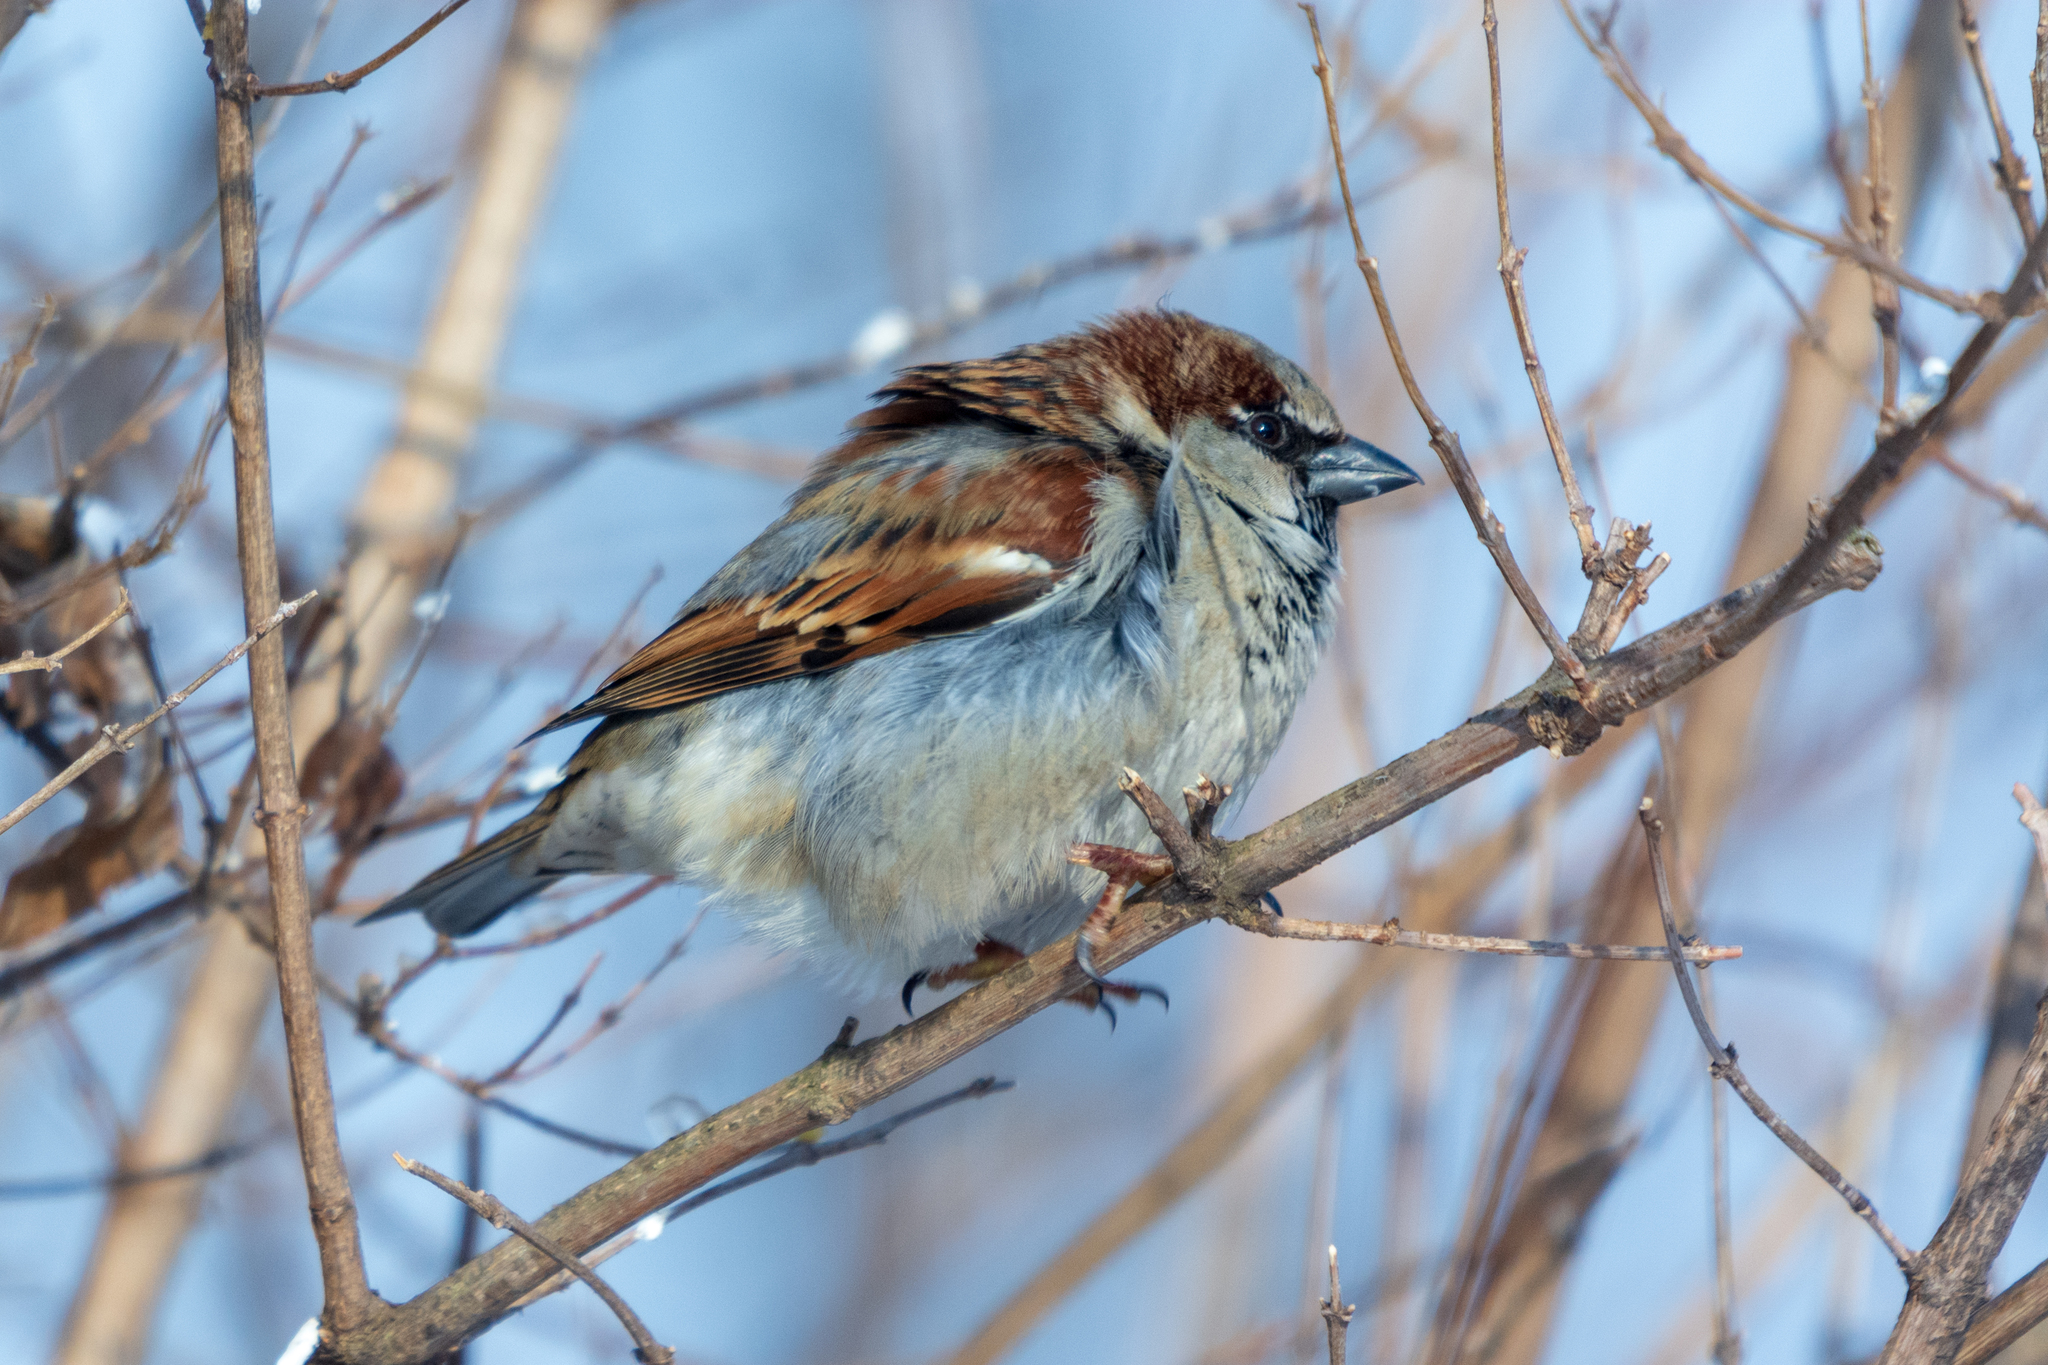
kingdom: Animalia
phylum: Chordata
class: Aves
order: Passeriformes
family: Passeridae
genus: Passer
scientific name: Passer domesticus
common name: House sparrow
